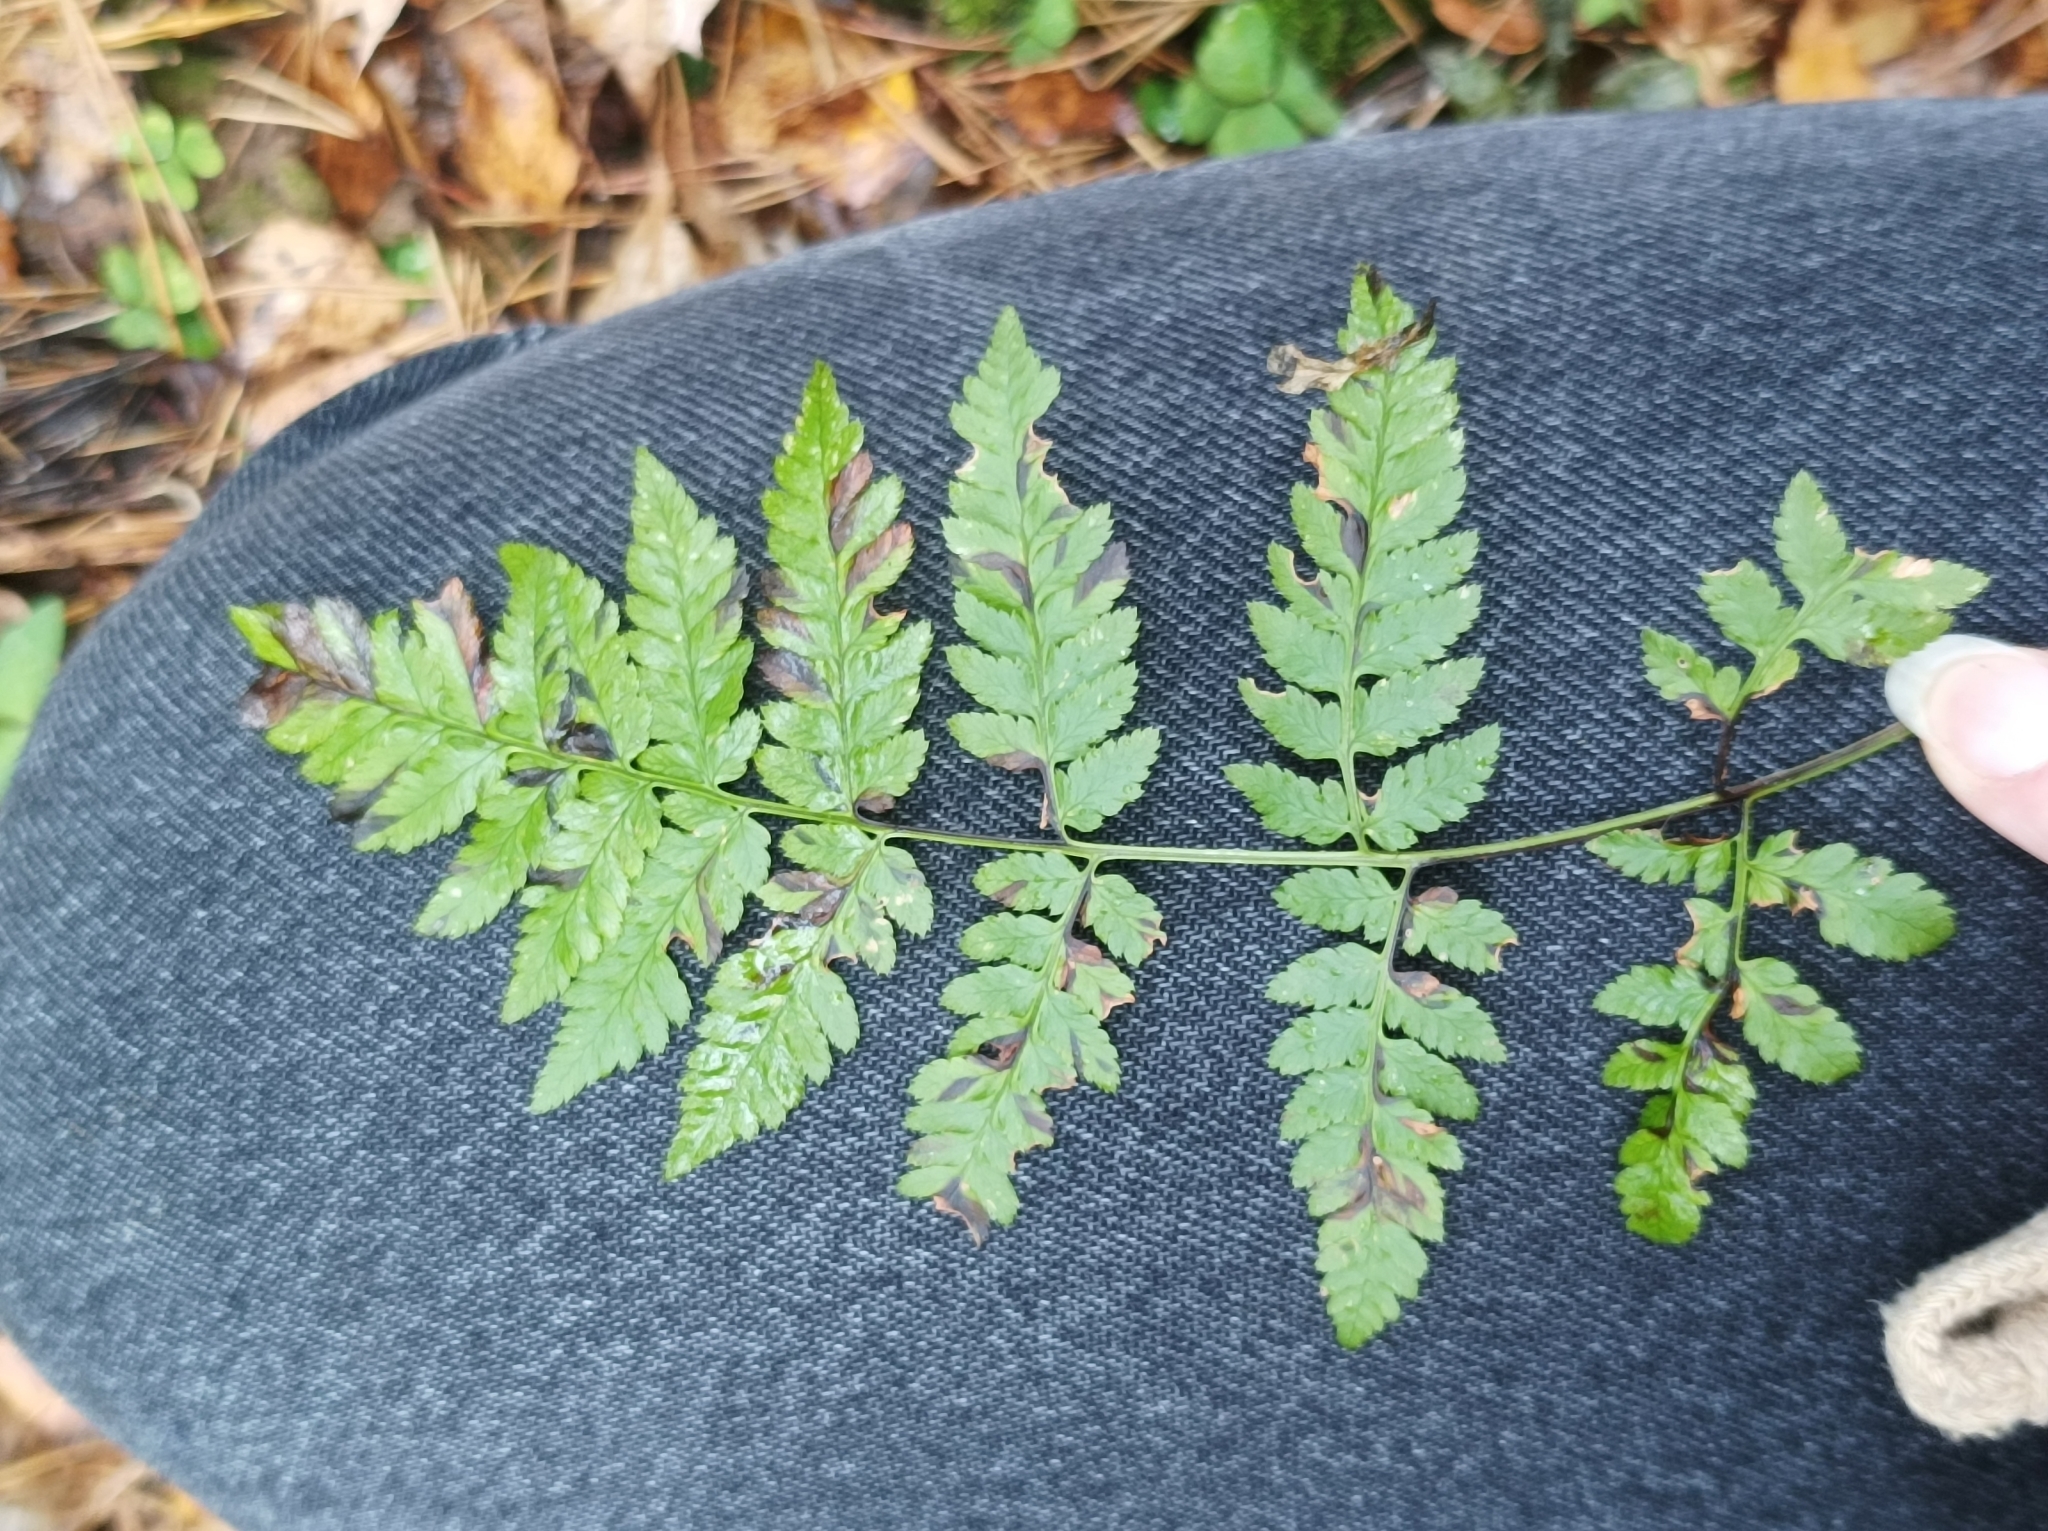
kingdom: Plantae
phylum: Tracheophyta
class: Polypodiopsida
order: Polypodiales
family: Dryopteridaceae
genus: Dryopteris
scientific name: Dryopteris carthusiana
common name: Narrow buckler-fern
